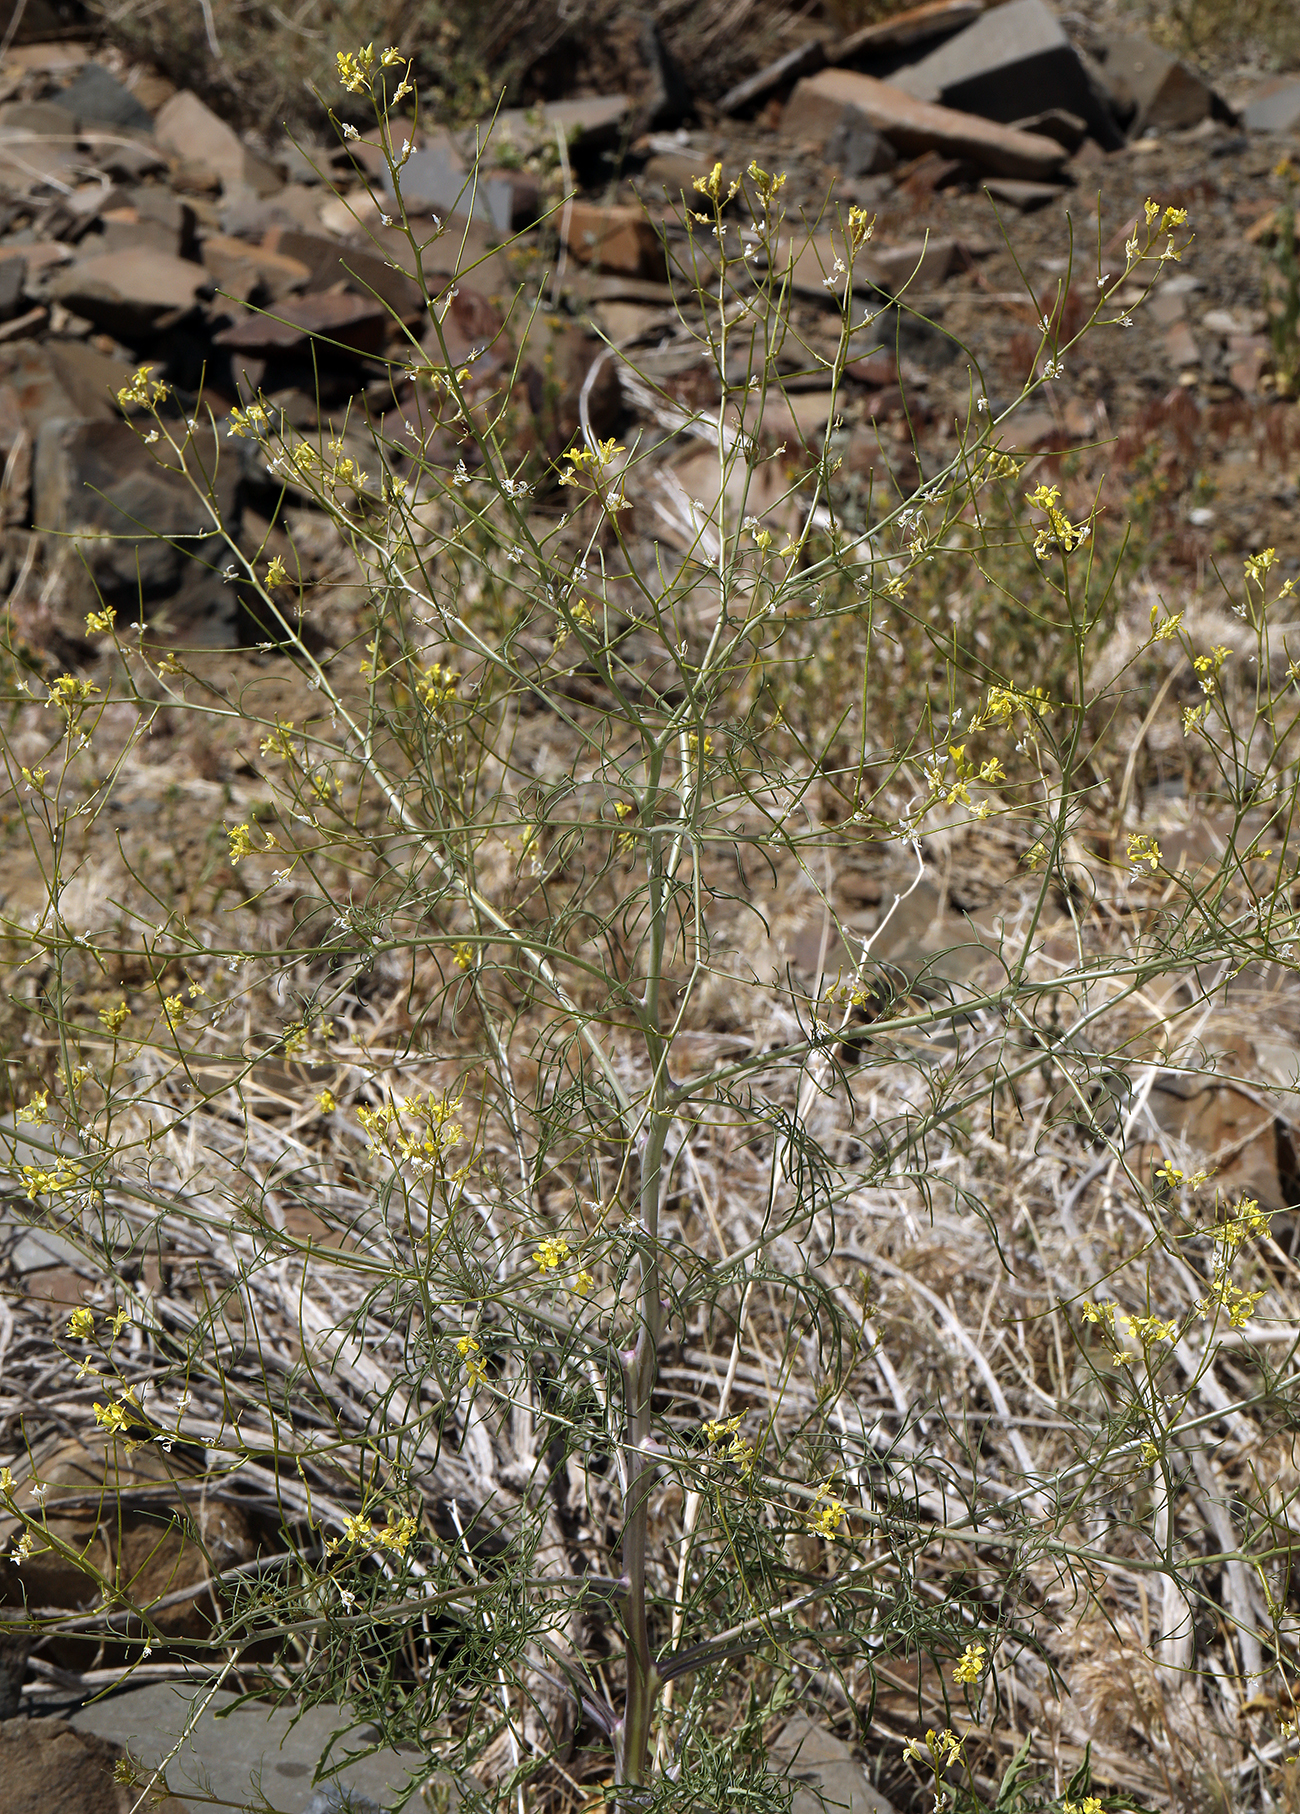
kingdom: Plantae
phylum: Tracheophyta
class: Magnoliopsida
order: Brassicales
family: Brassicaceae
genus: Sisymbrium
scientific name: Sisymbrium altissimum
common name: Tall rocket
